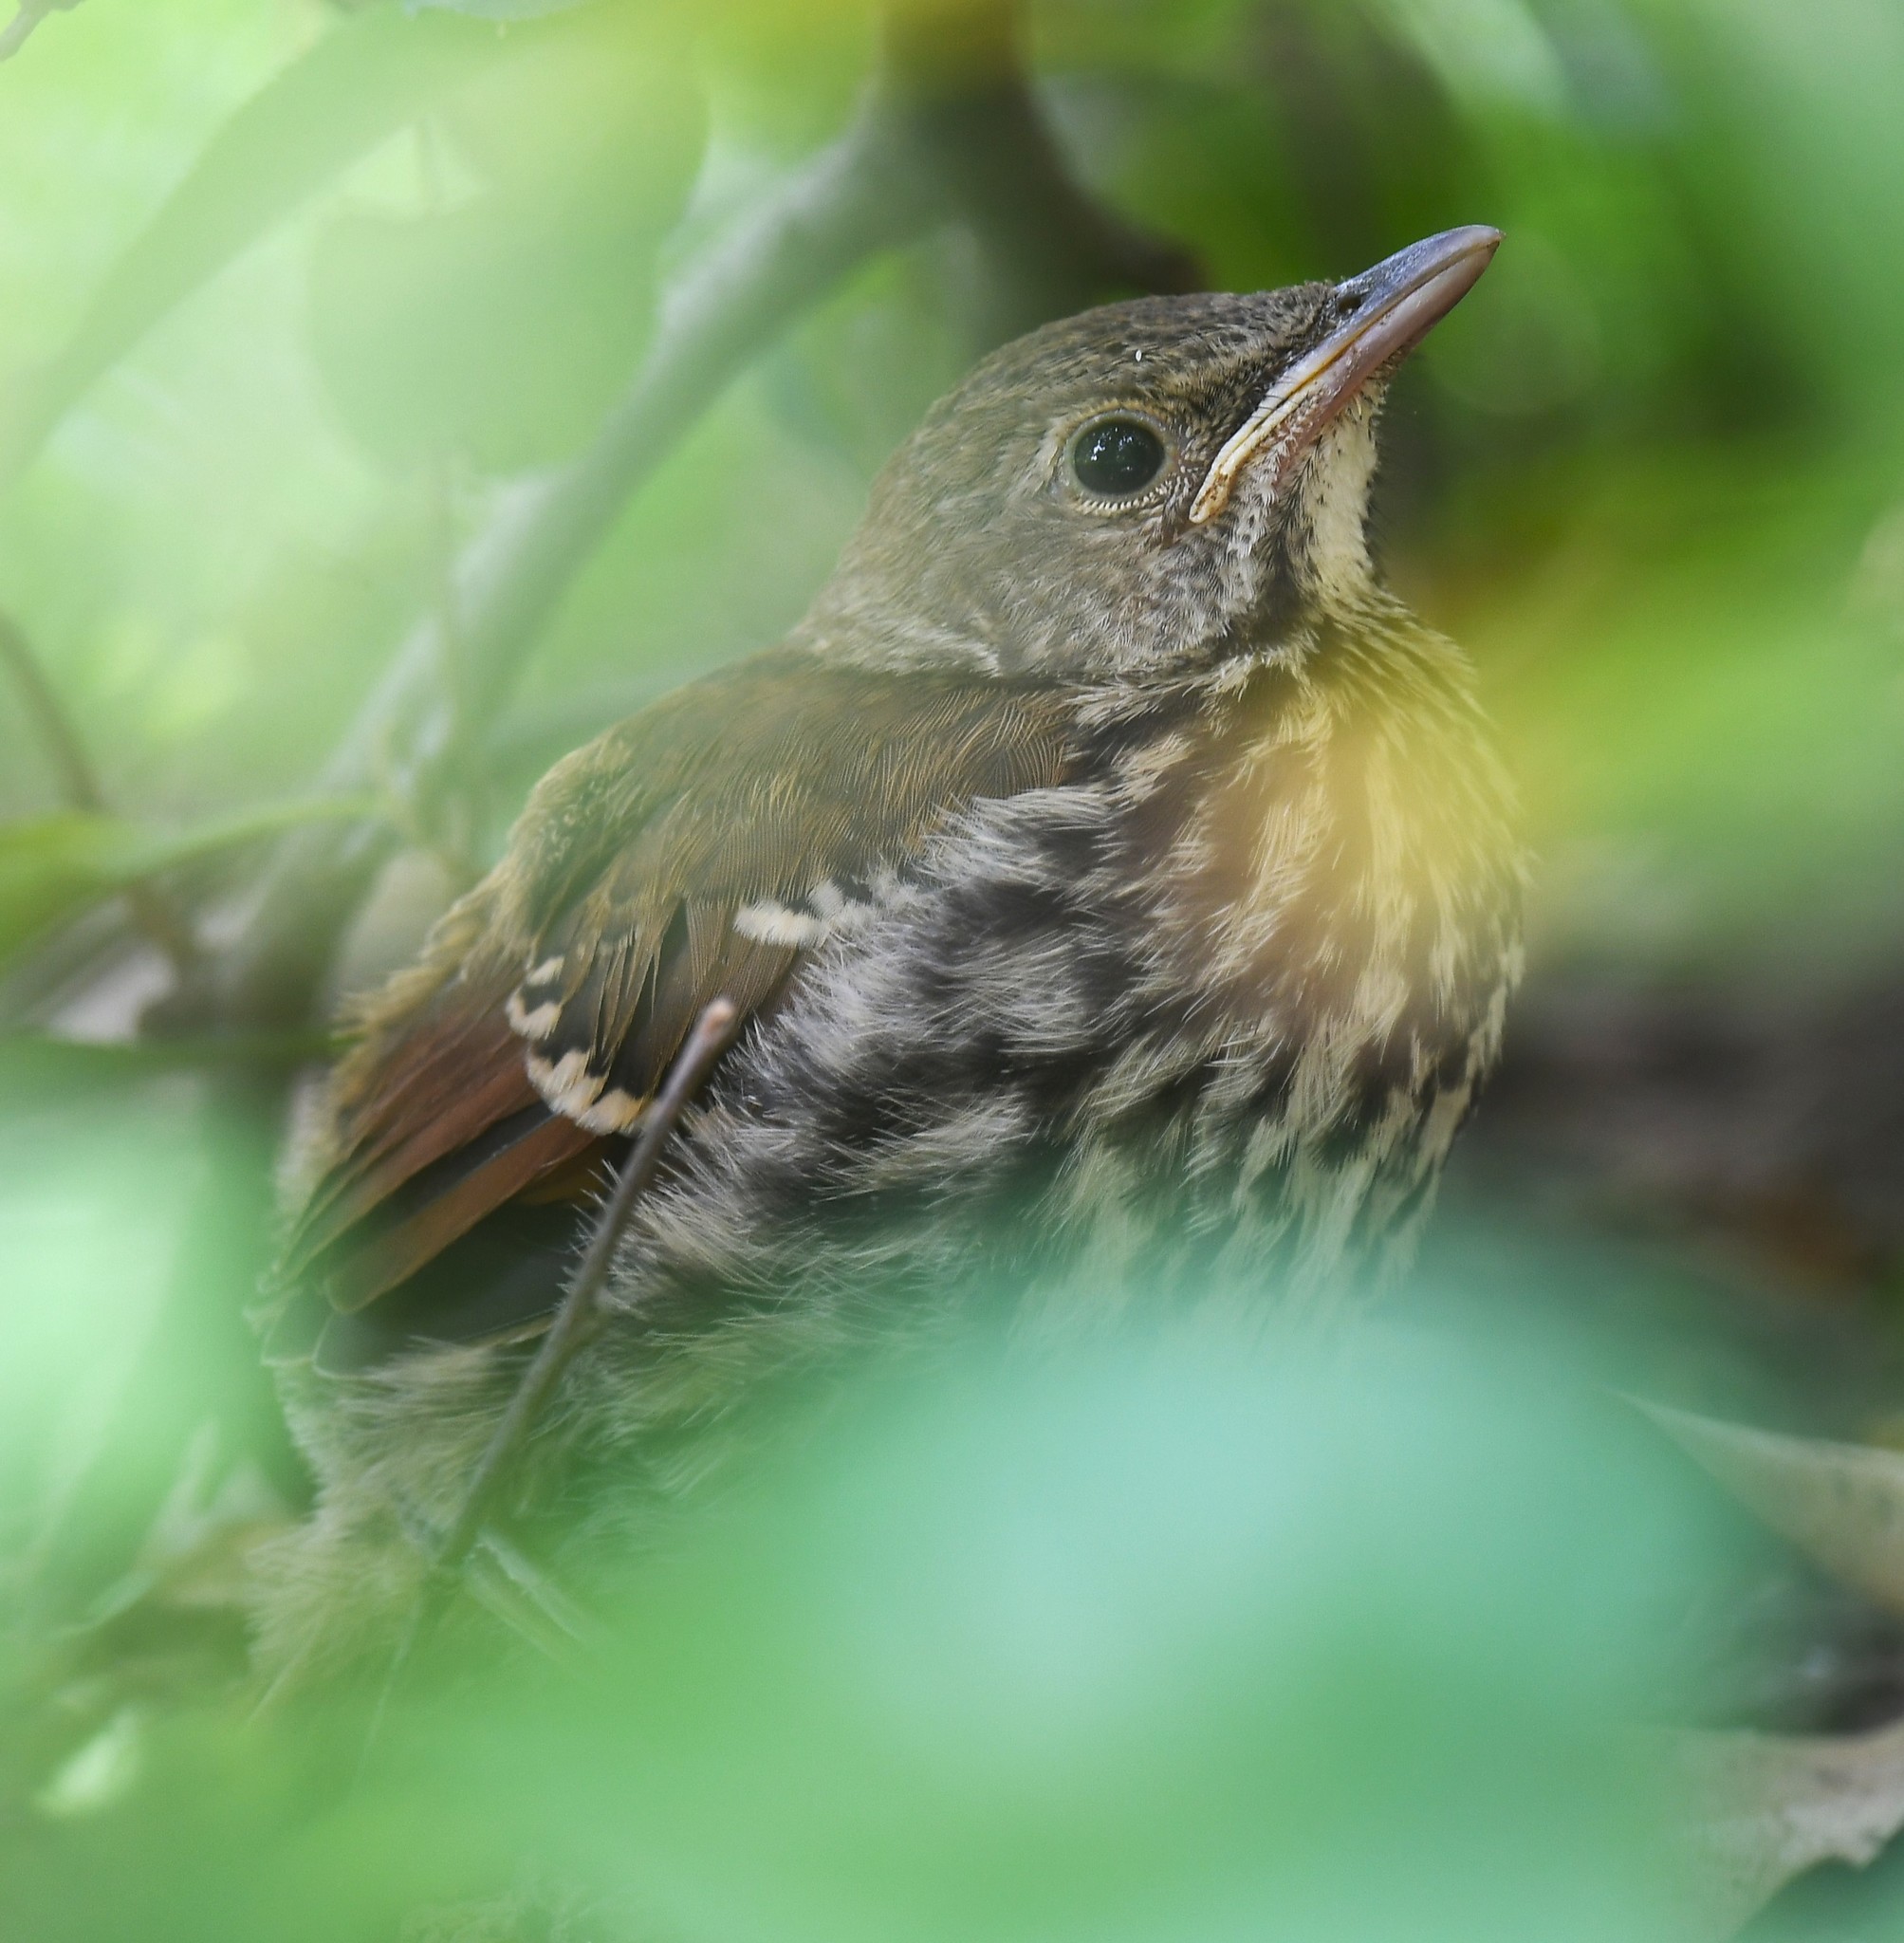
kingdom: Animalia
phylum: Chordata
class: Aves
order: Passeriformes
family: Mimidae
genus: Toxostoma
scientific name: Toxostoma rufum
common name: Brown thrasher
